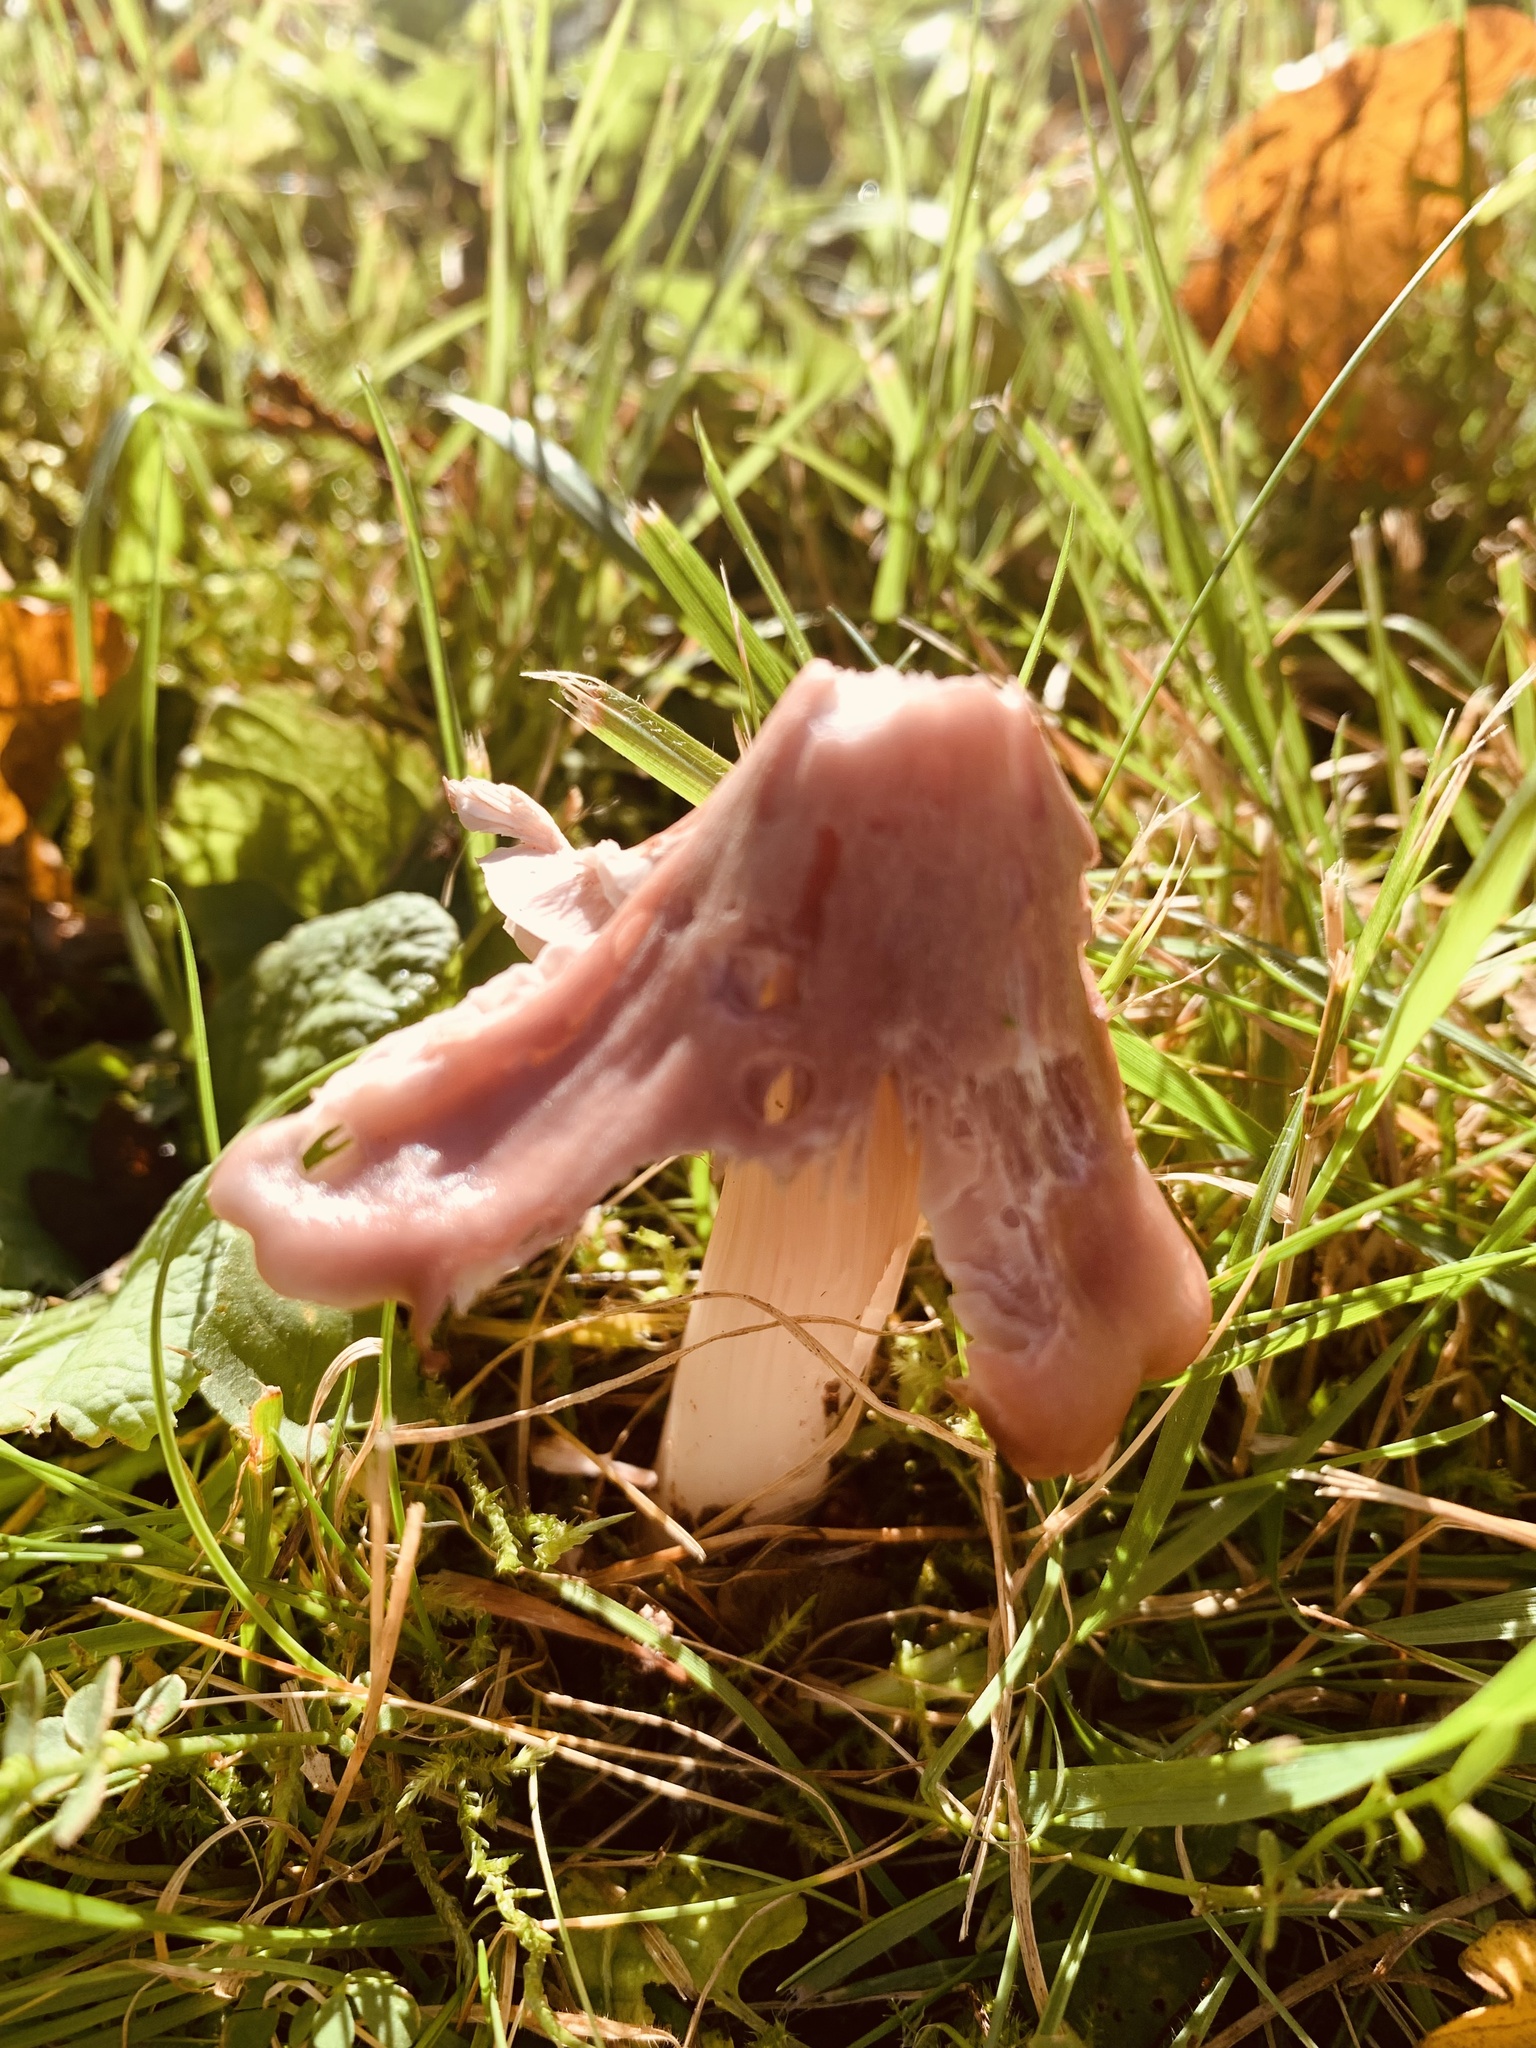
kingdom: Fungi
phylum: Basidiomycota
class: Agaricomycetes
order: Agaricales
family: Hygrophoraceae
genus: Porpolomopsis
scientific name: Porpolomopsis calyptriformis
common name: Pink waxcap
